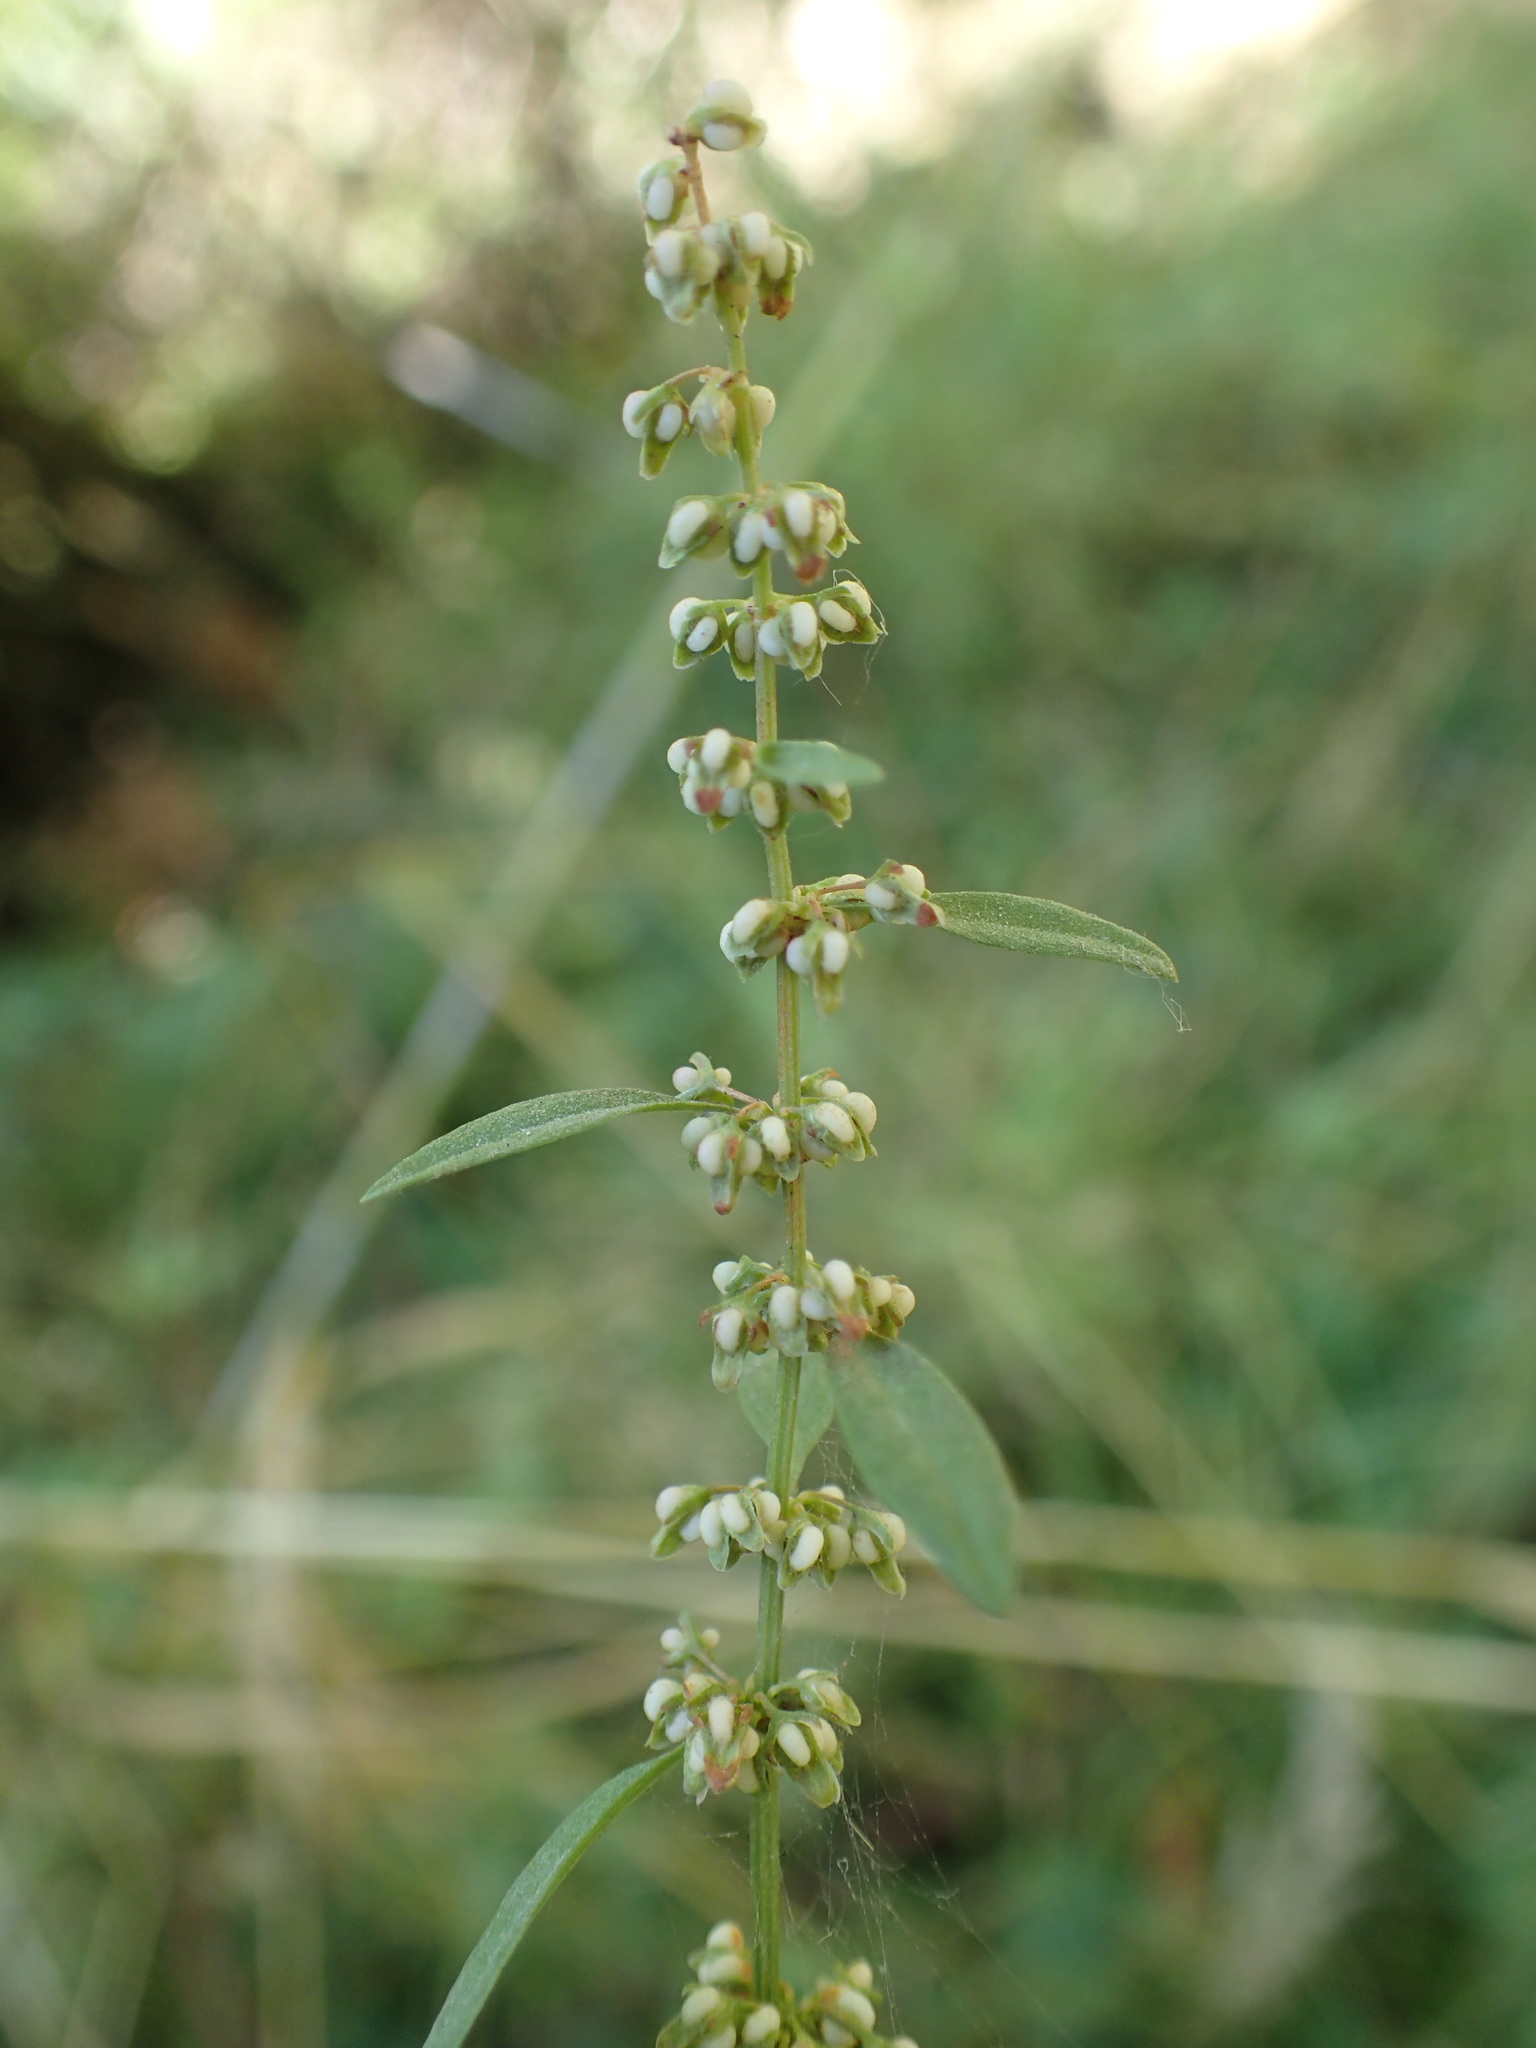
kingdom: Plantae
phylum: Tracheophyta
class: Magnoliopsida
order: Caryophyllales
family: Polygonaceae
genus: Rumex
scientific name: Rumex conglomeratus
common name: Clustered dock
